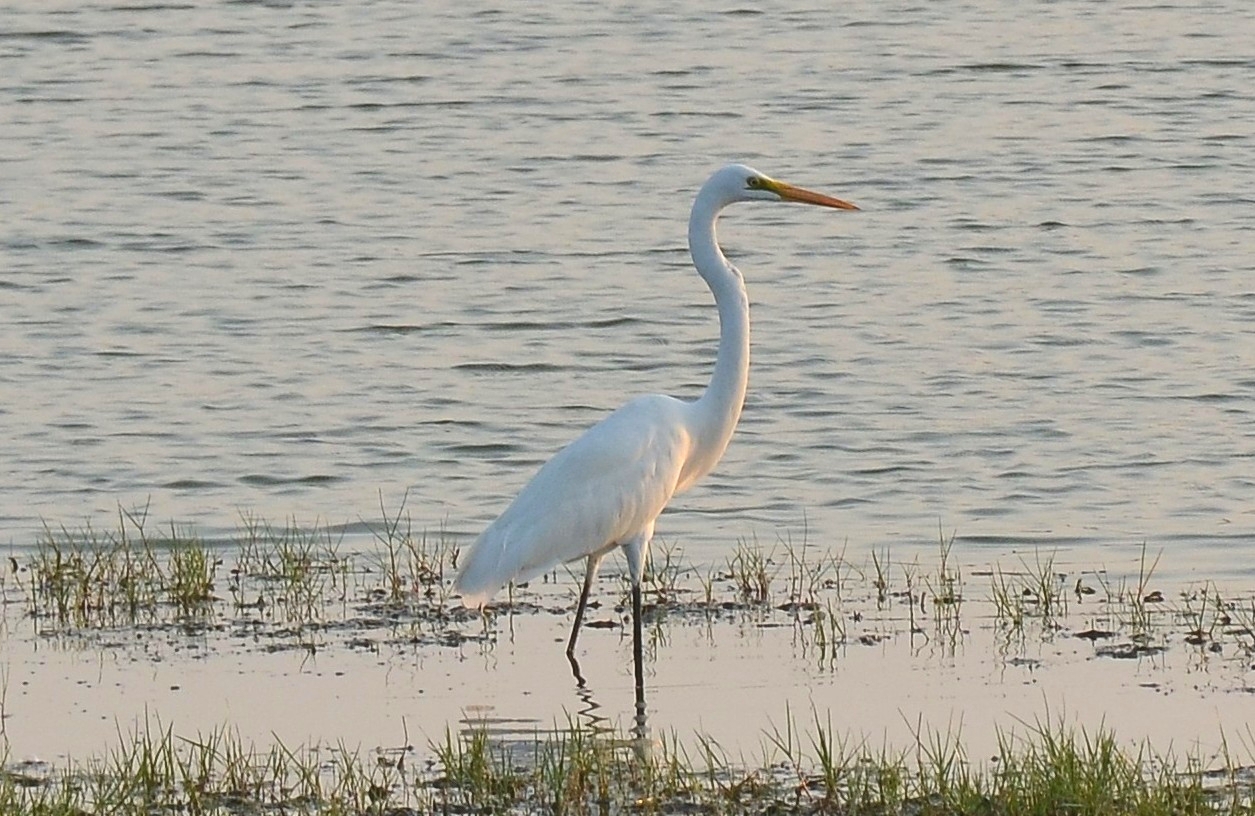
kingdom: Animalia
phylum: Chordata
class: Aves
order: Pelecaniformes
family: Ardeidae
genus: Ardea
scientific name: Ardea alba
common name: Great egret
